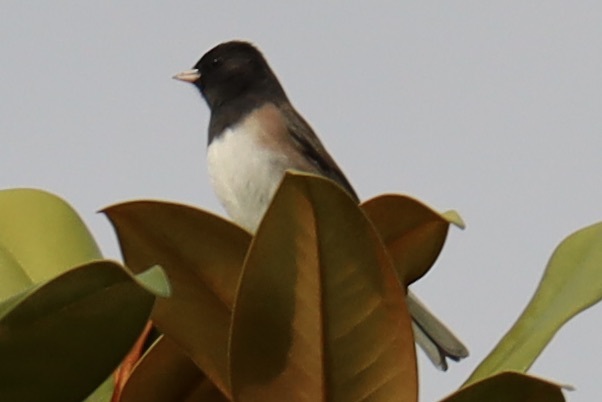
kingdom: Animalia
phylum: Chordata
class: Aves
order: Passeriformes
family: Passerellidae
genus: Junco
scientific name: Junco hyemalis
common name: Dark-eyed junco
